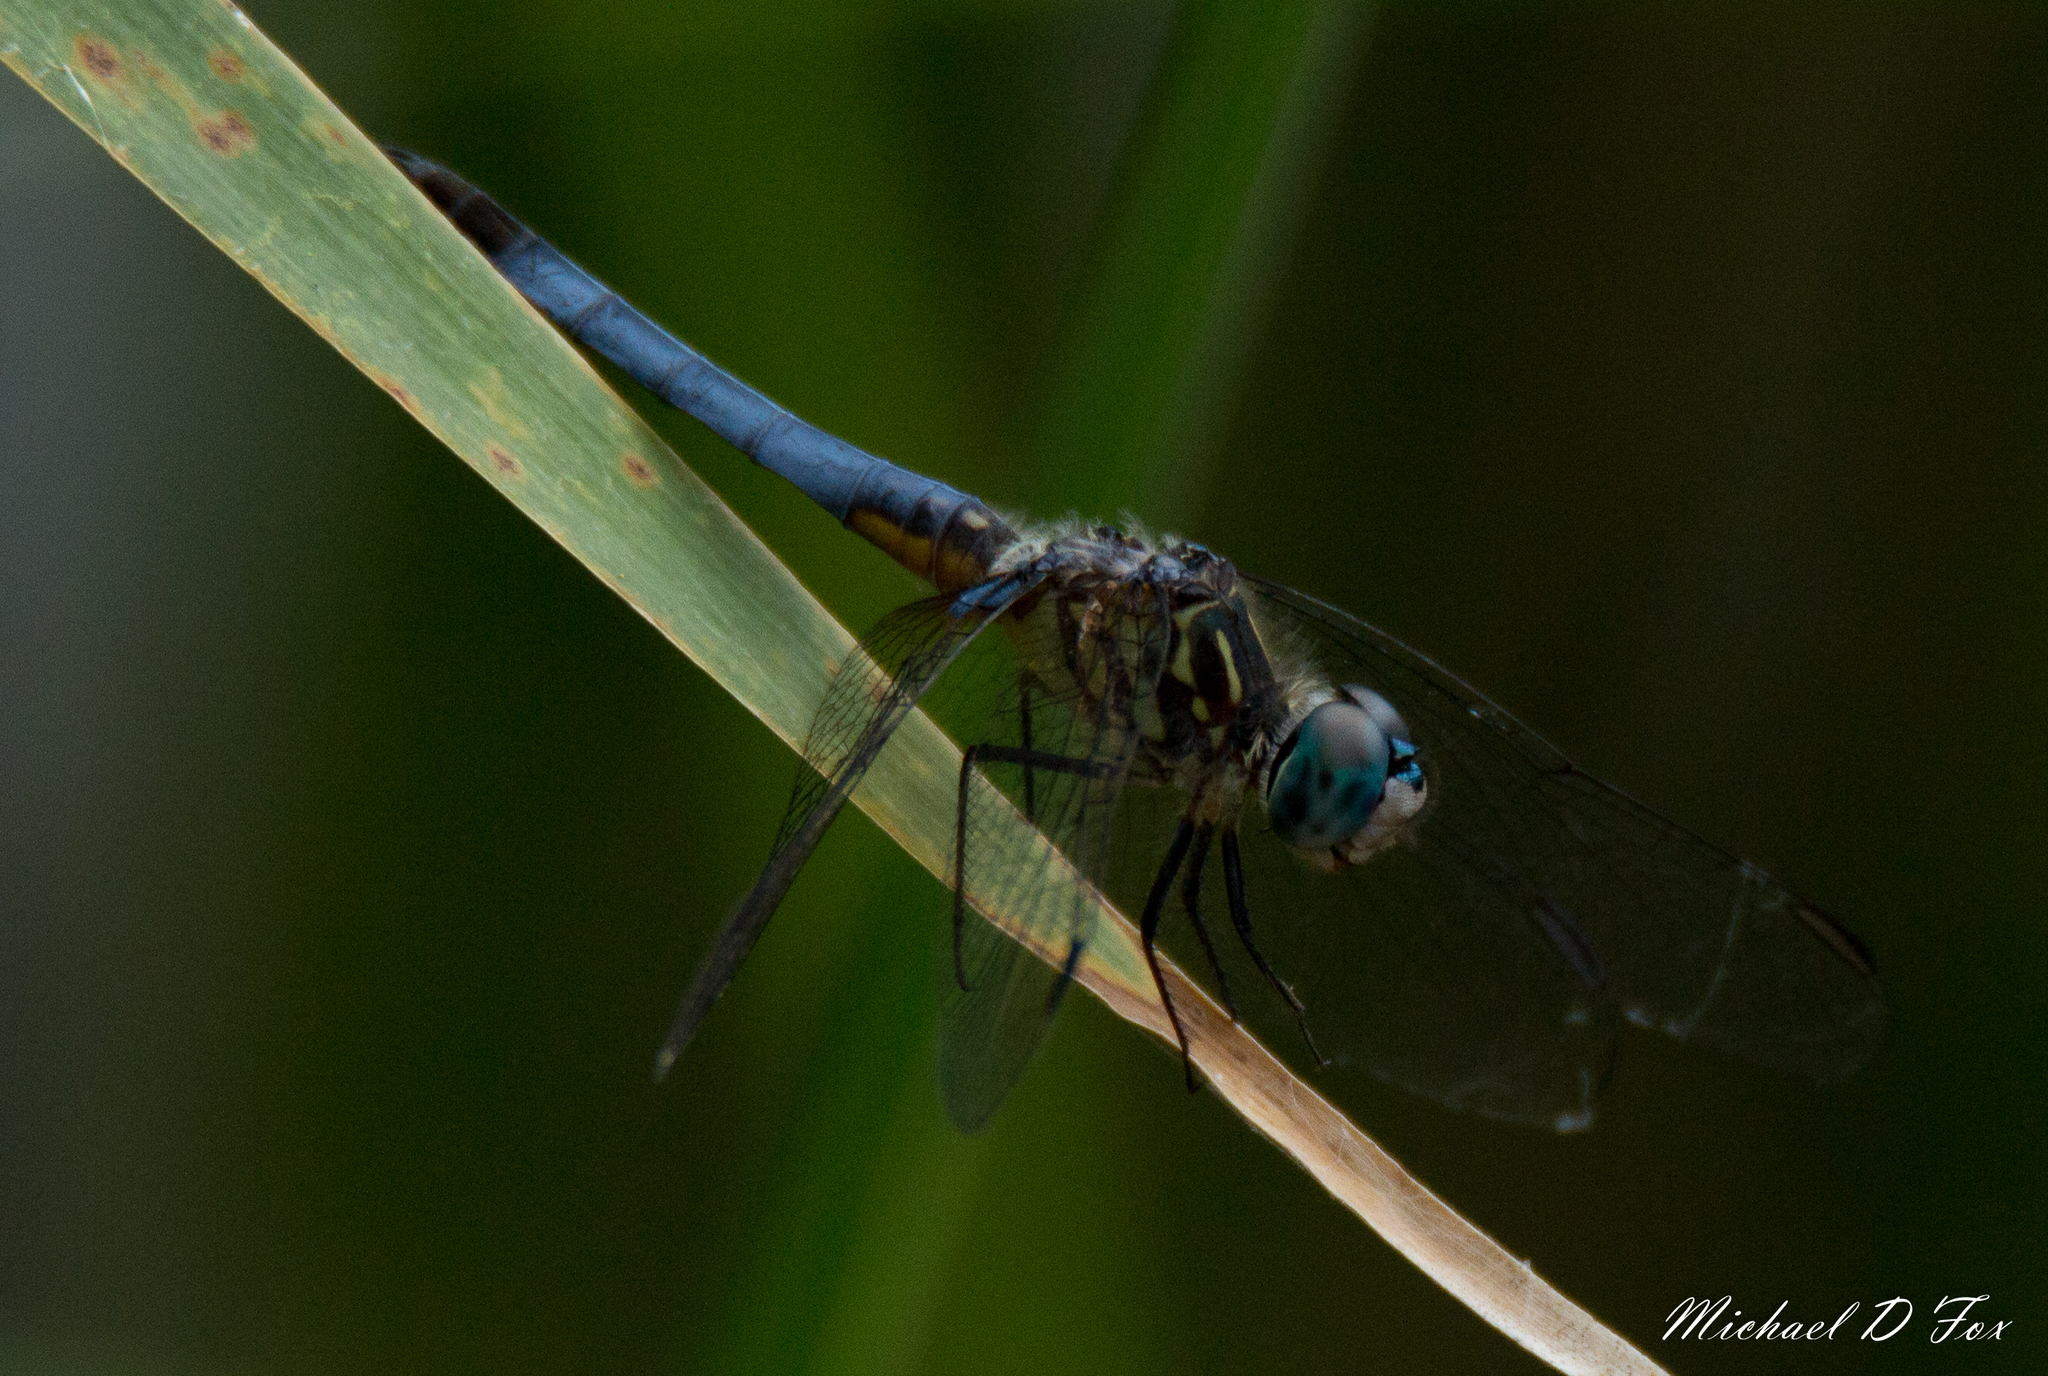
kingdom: Animalia
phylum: Arthropoda
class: Insecta
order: Odonata
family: Libellulidae
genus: Pachydiplax
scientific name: Pachydiplax longipennis
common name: Blue dasher
